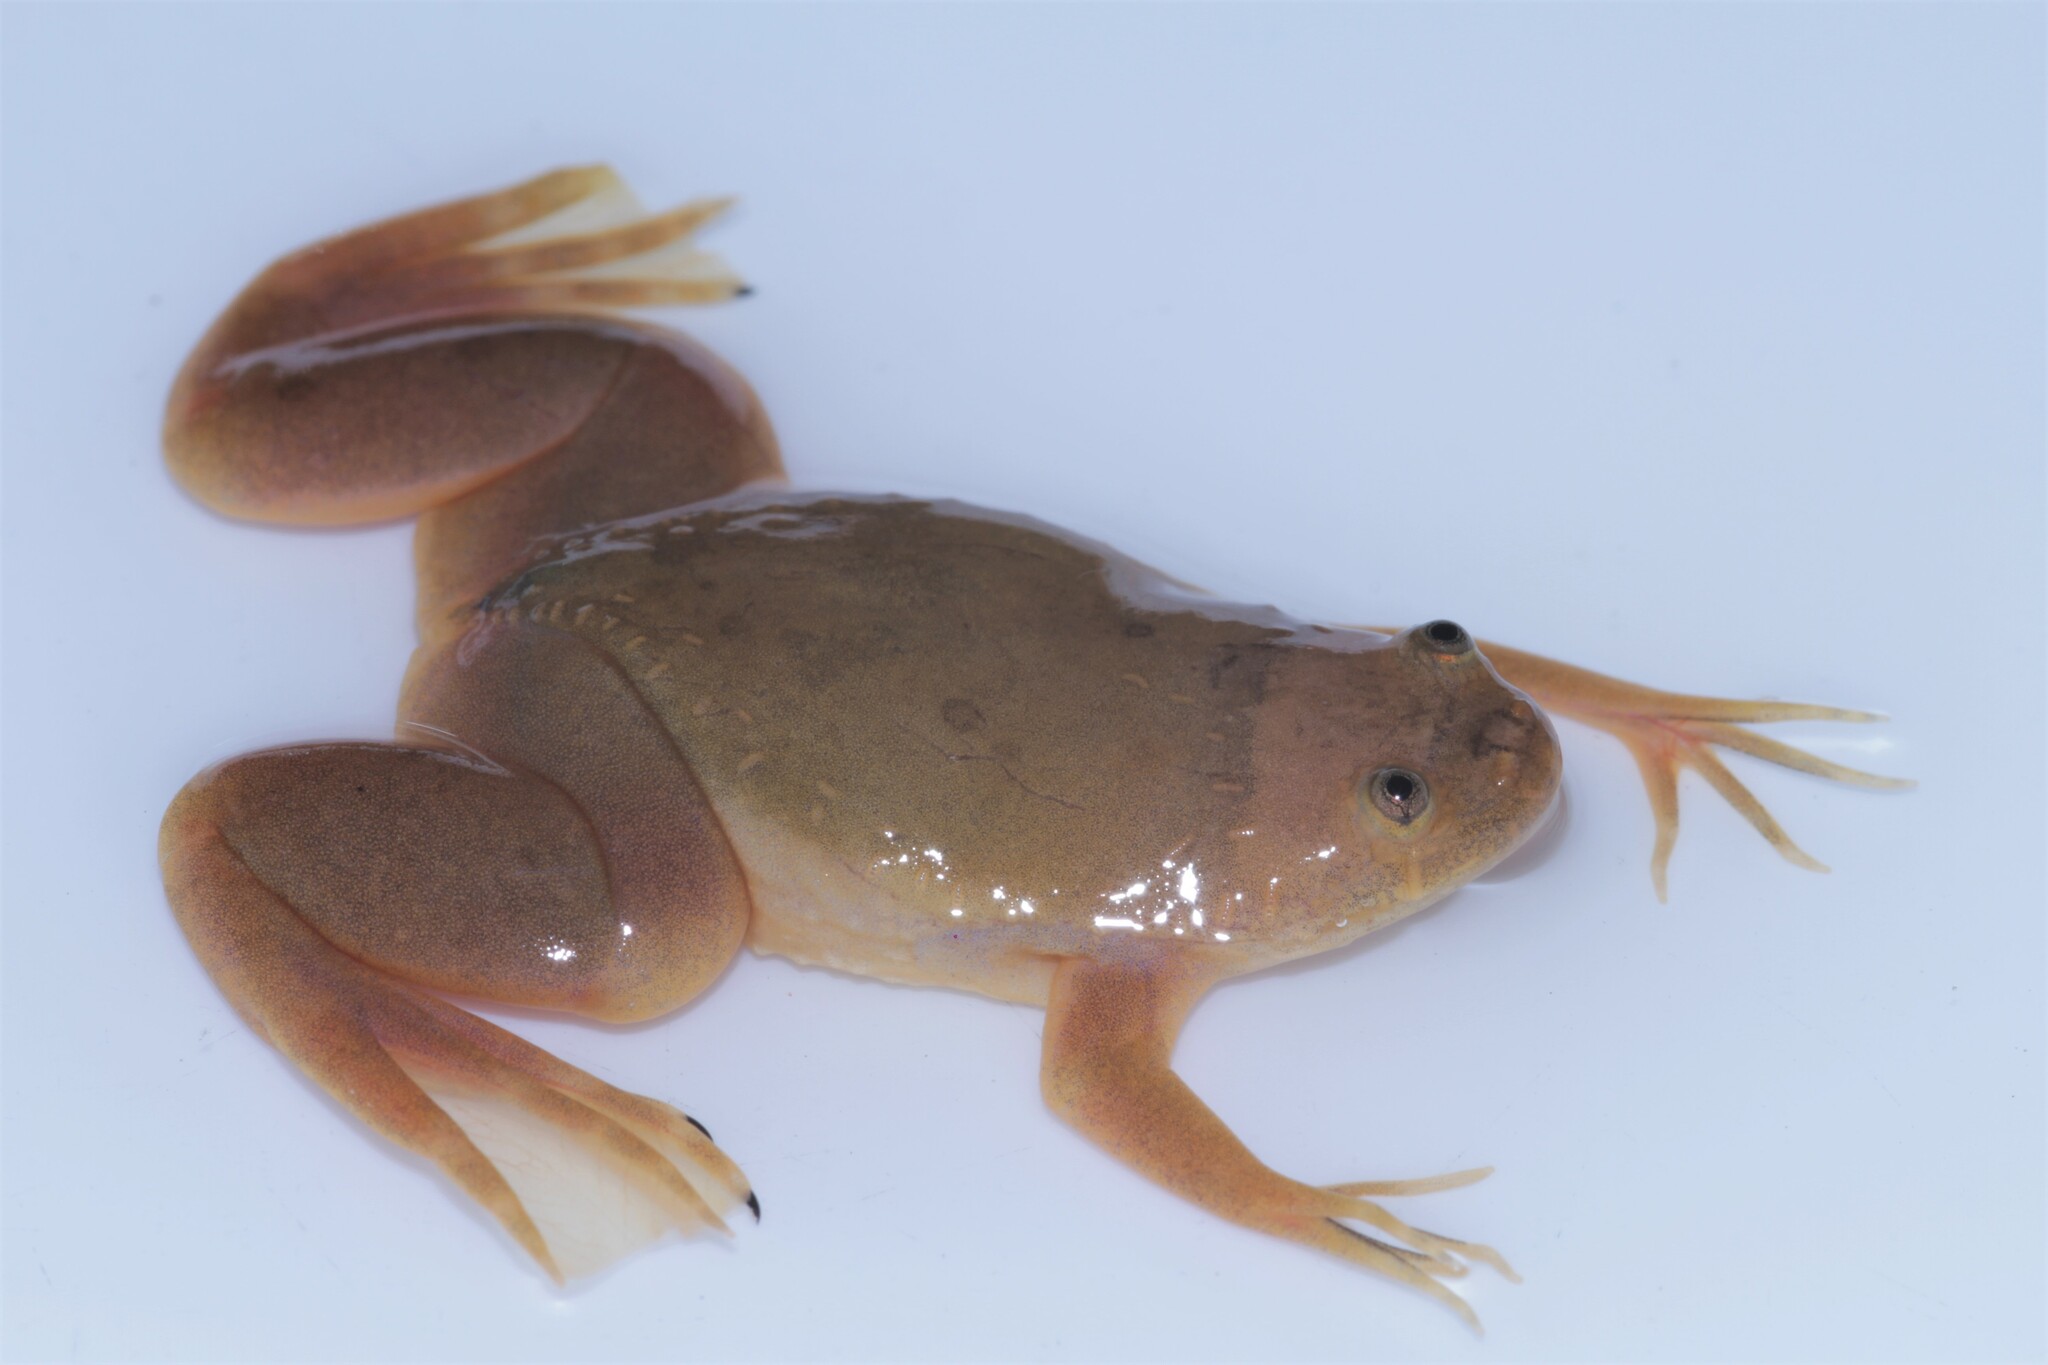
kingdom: Animalia
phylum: Chordata
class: Amphibia
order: Anura
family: Pipidae
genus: Xenopus
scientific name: Xenopus andrei
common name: Andre's clawed frog
